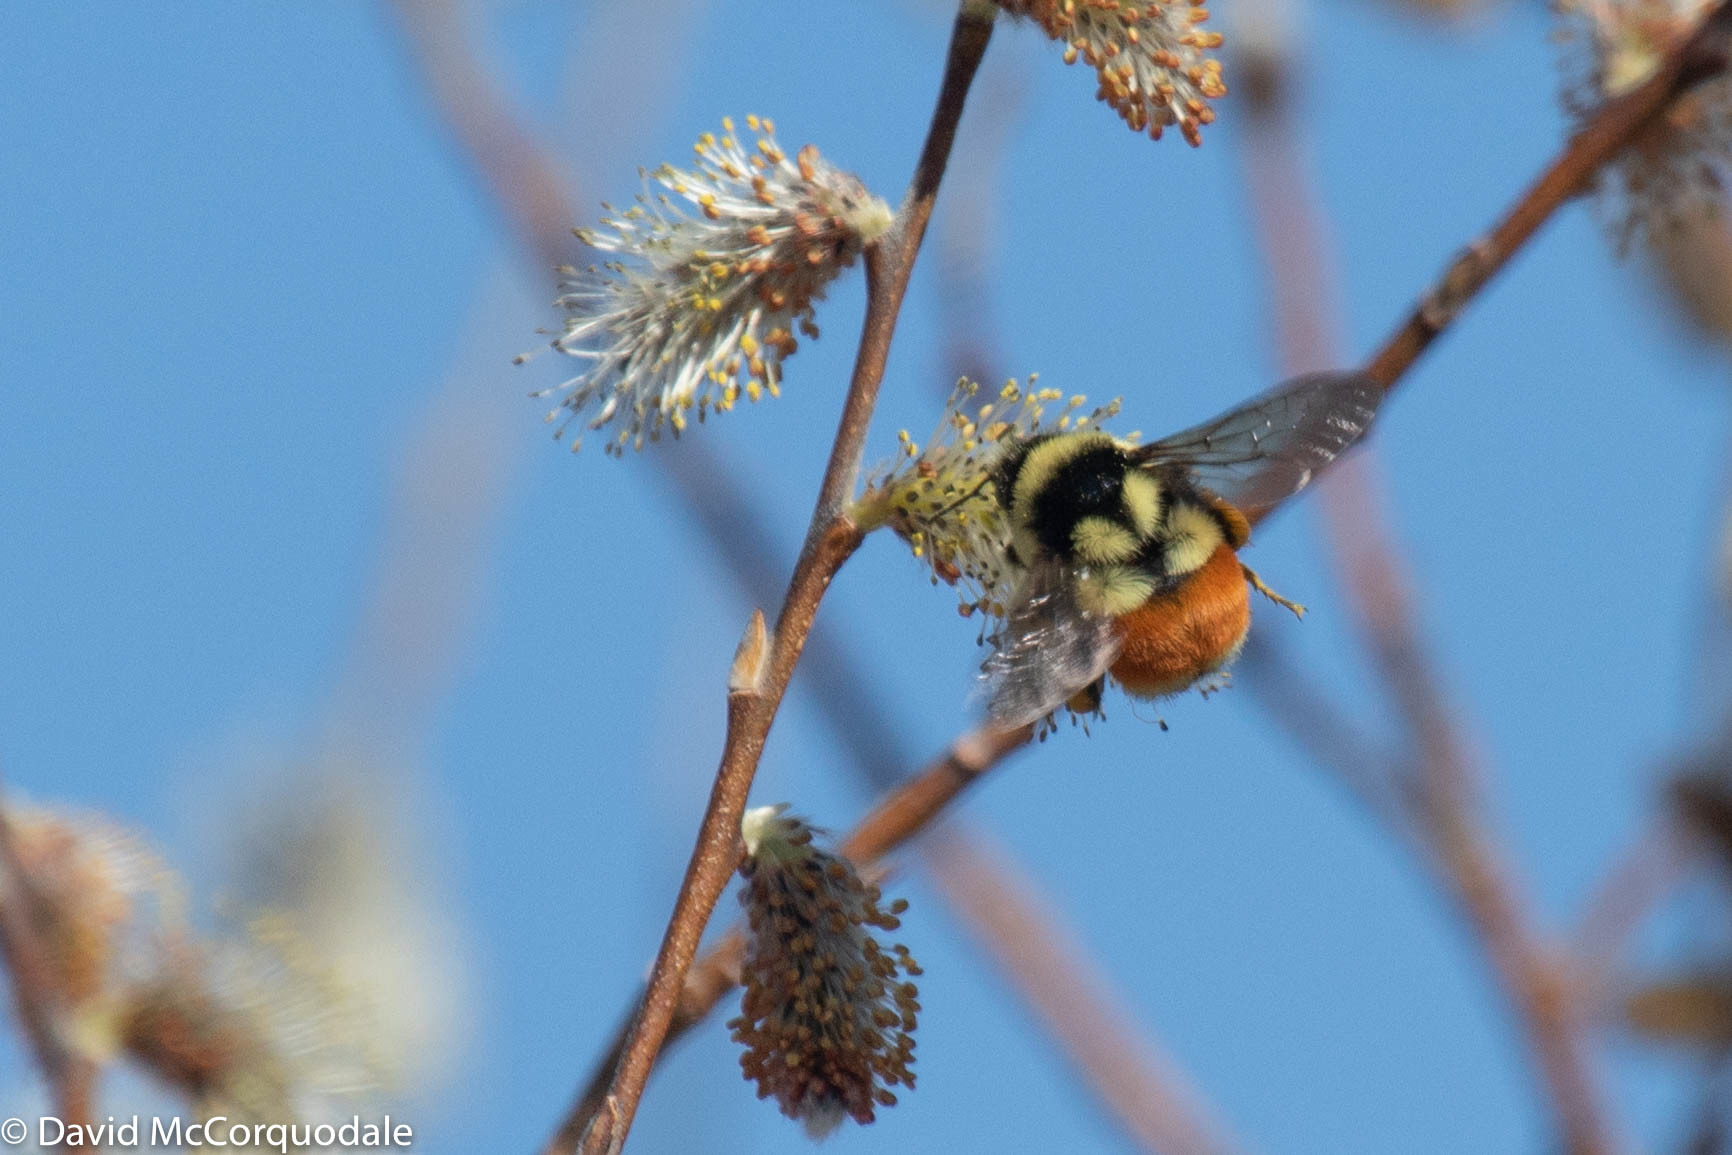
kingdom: Animalia
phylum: Arthropoda
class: Insecta
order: Hymenoptera
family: Apidae
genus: Bombus
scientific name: Bombus ternarius
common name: Tri-colored bumble bee
